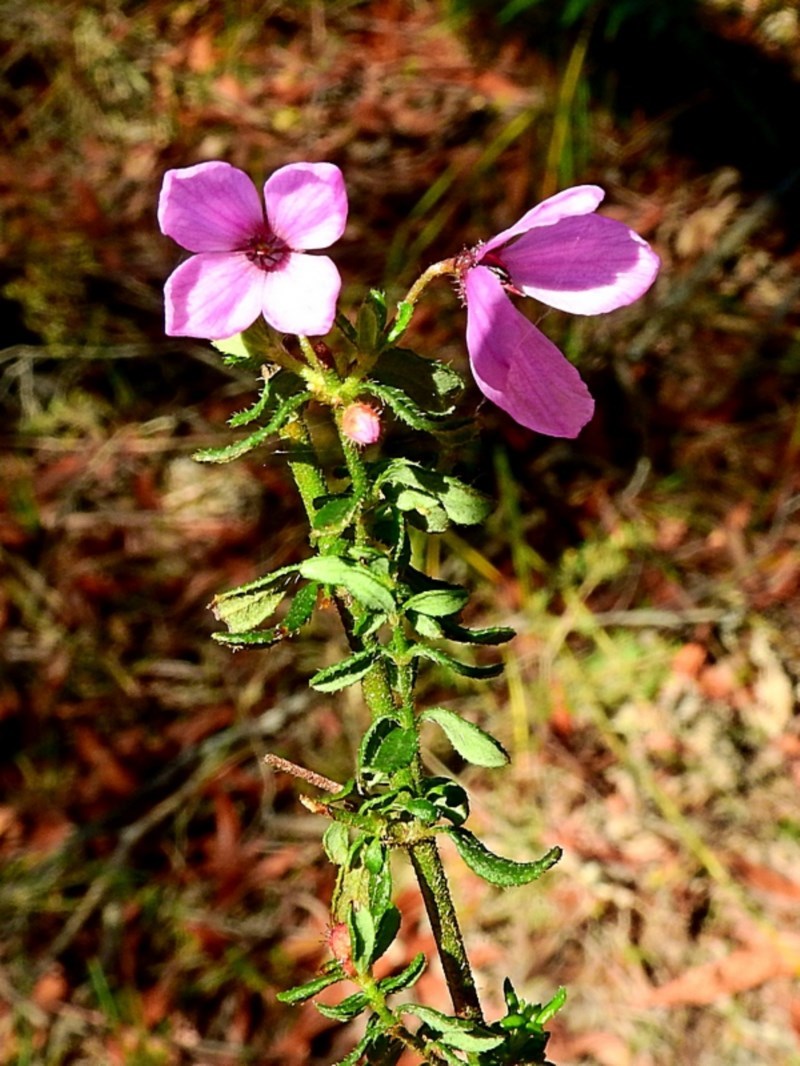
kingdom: Plantae
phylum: Tracheophyta
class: Magnoliopsida
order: Oxalidales
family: Elaeocarpaceae
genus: Tetratheca
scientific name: Tetratheca thymifolia
